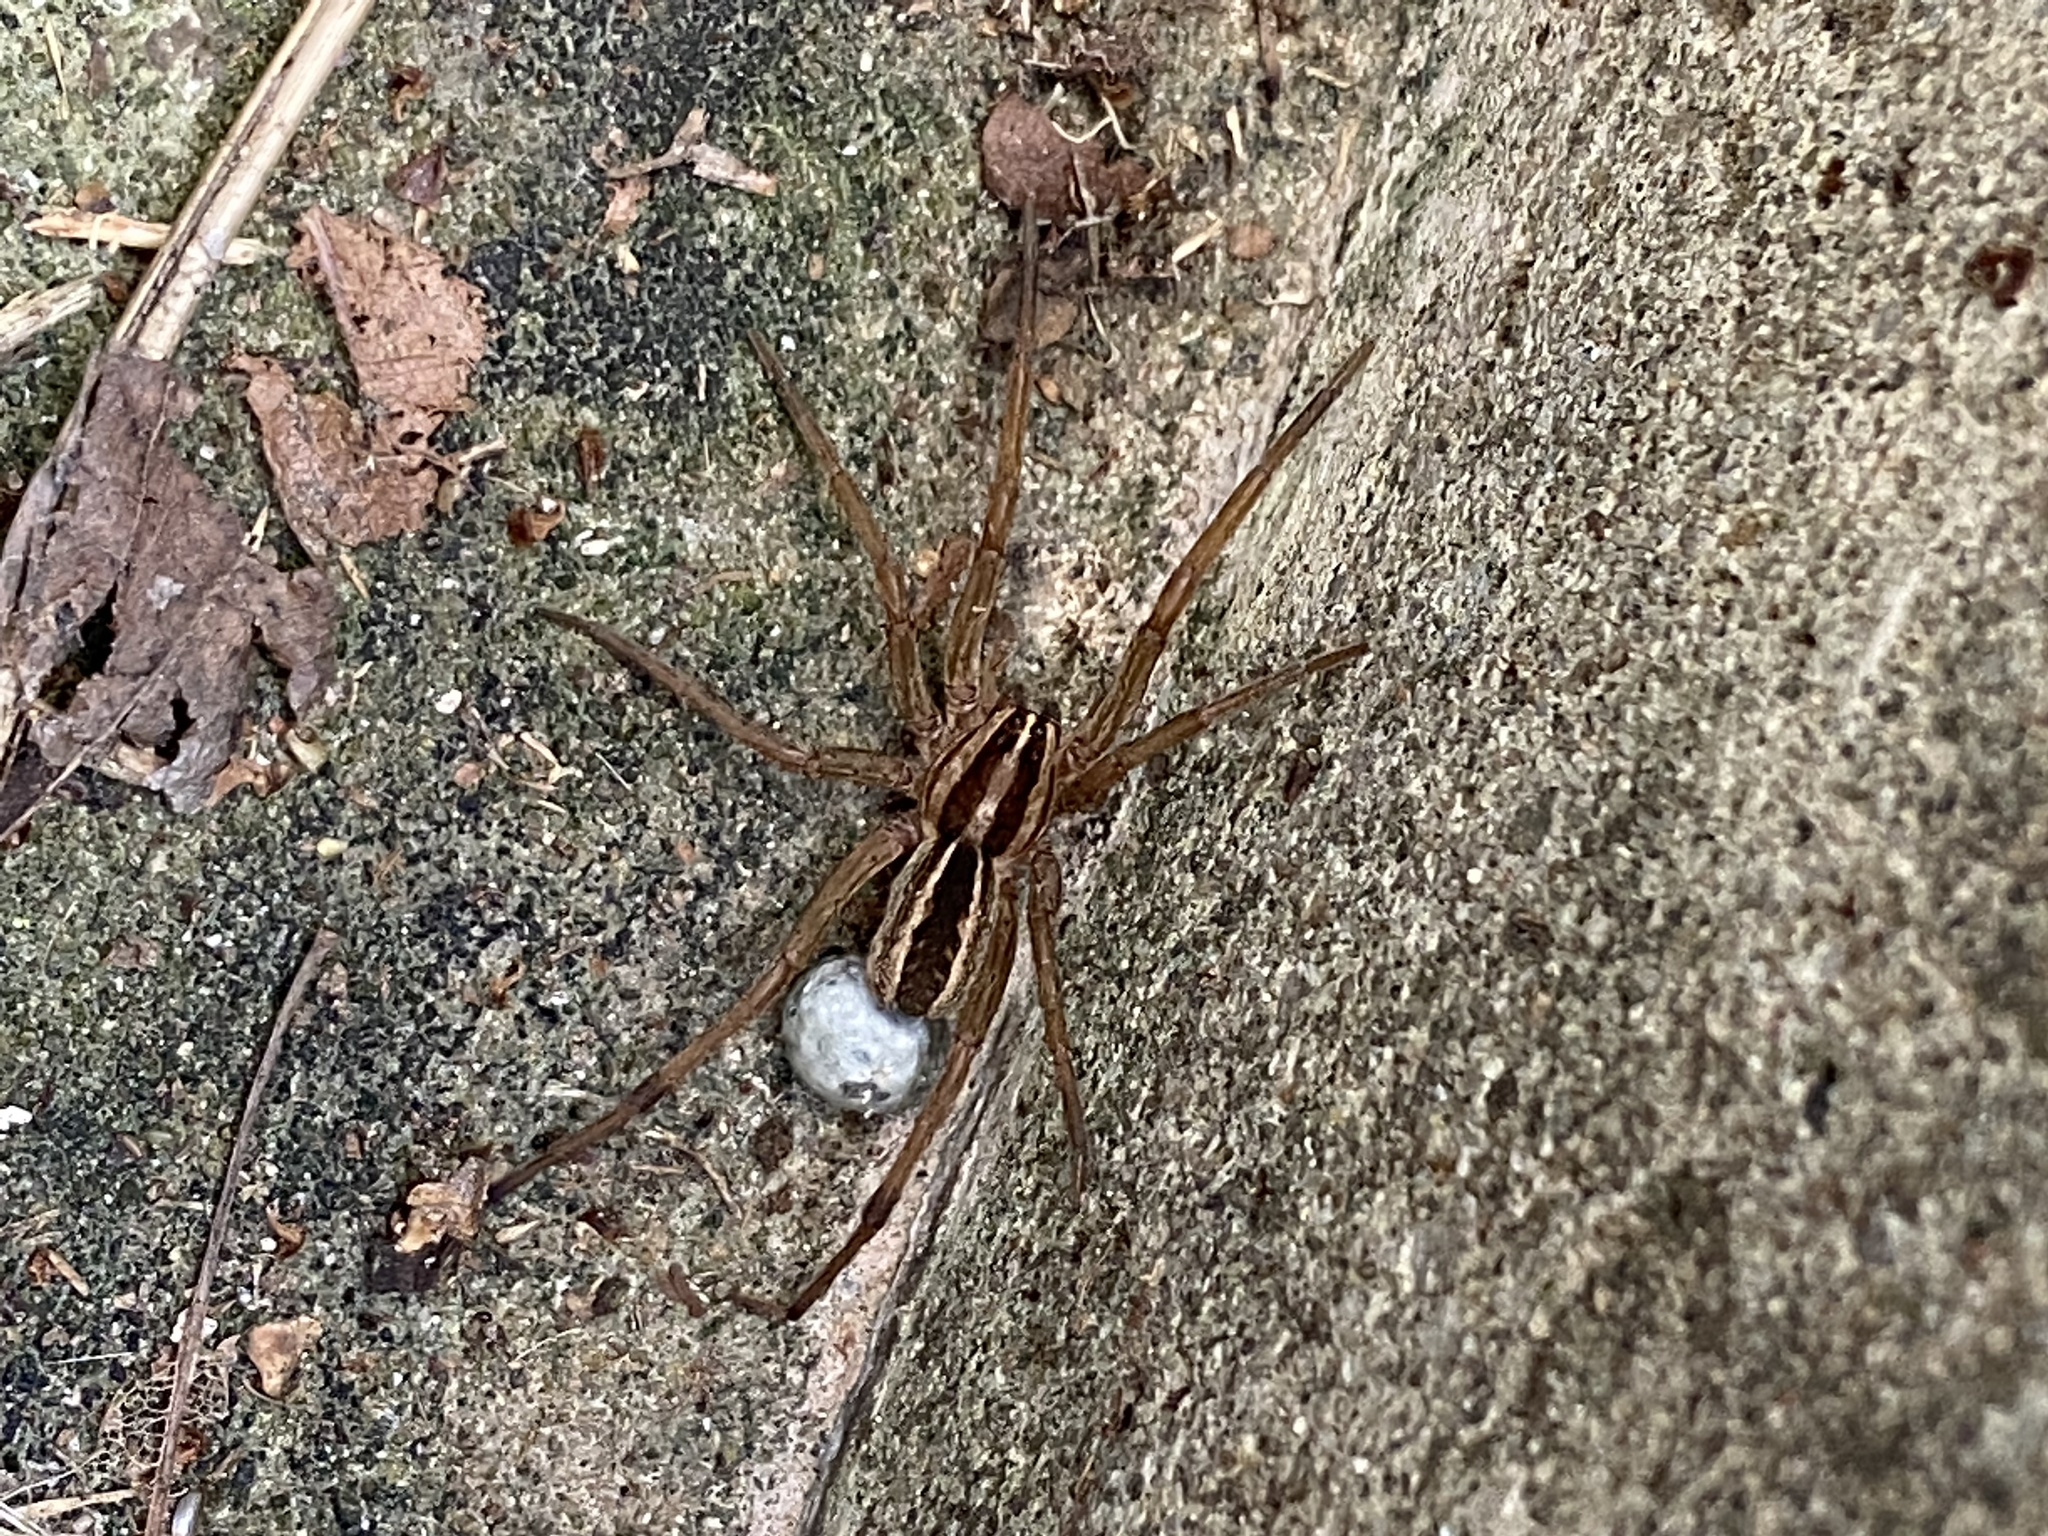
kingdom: Animalia
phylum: Arthropoda
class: Arachnida
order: Araneae
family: Lycosidae
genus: Rabidosa
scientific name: Rabidosa rabida
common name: Rabid wolf spider
